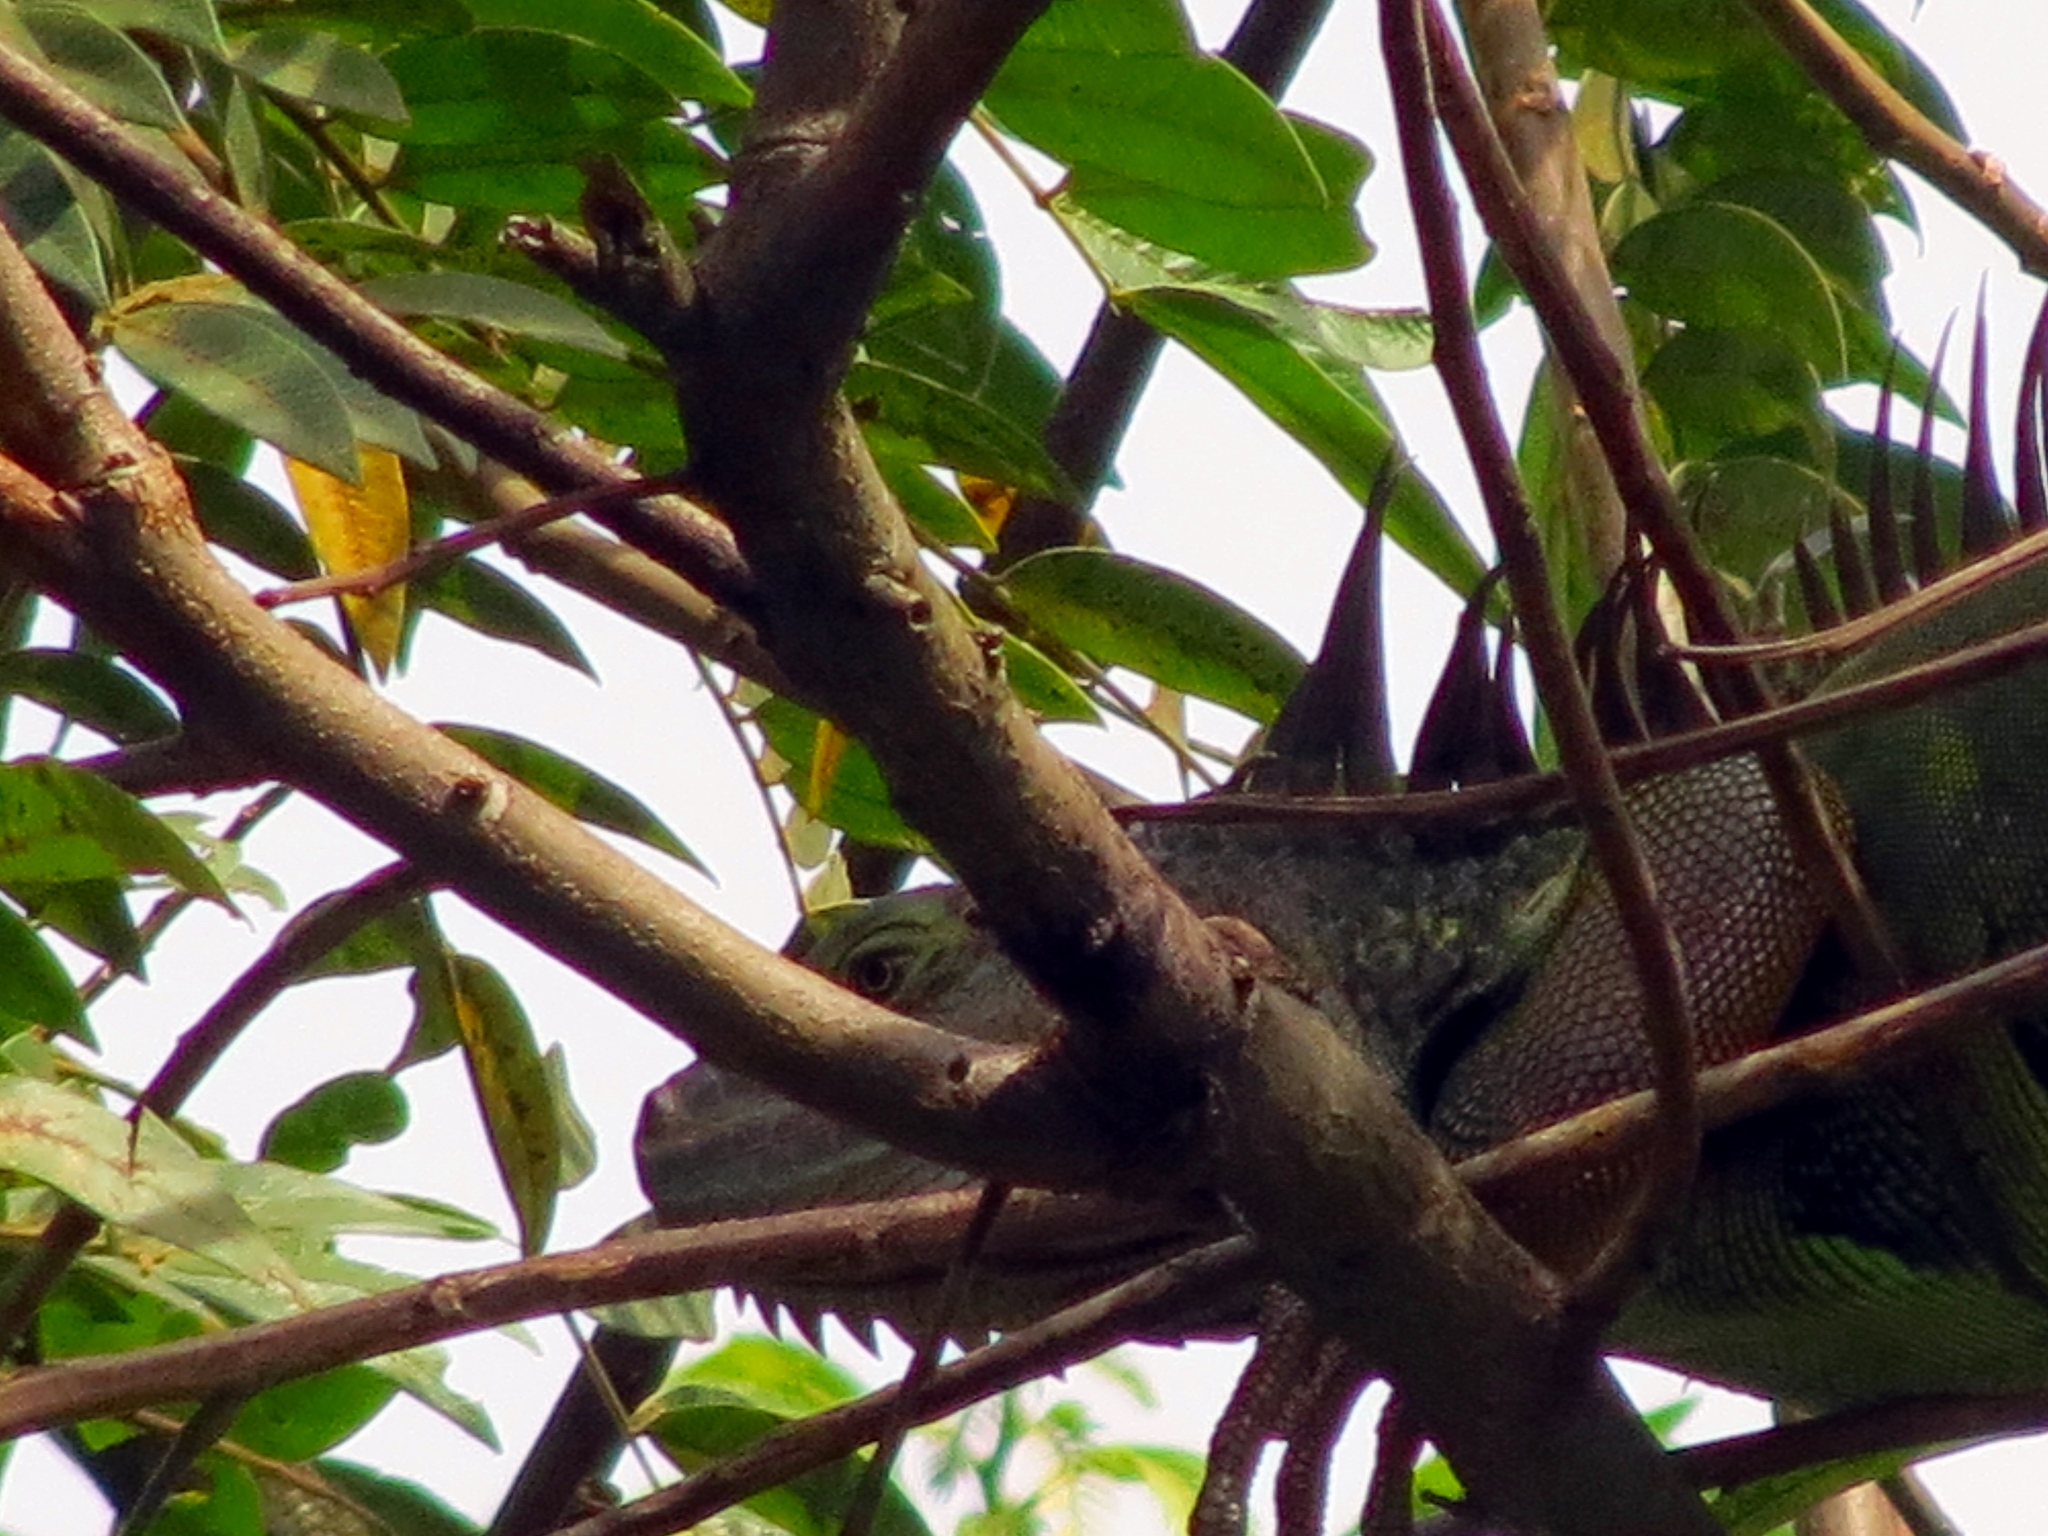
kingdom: Animalia
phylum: Chordata
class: Squamata
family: Iguanidae
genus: Iguana
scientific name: Iguana iguana
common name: Green iguana
